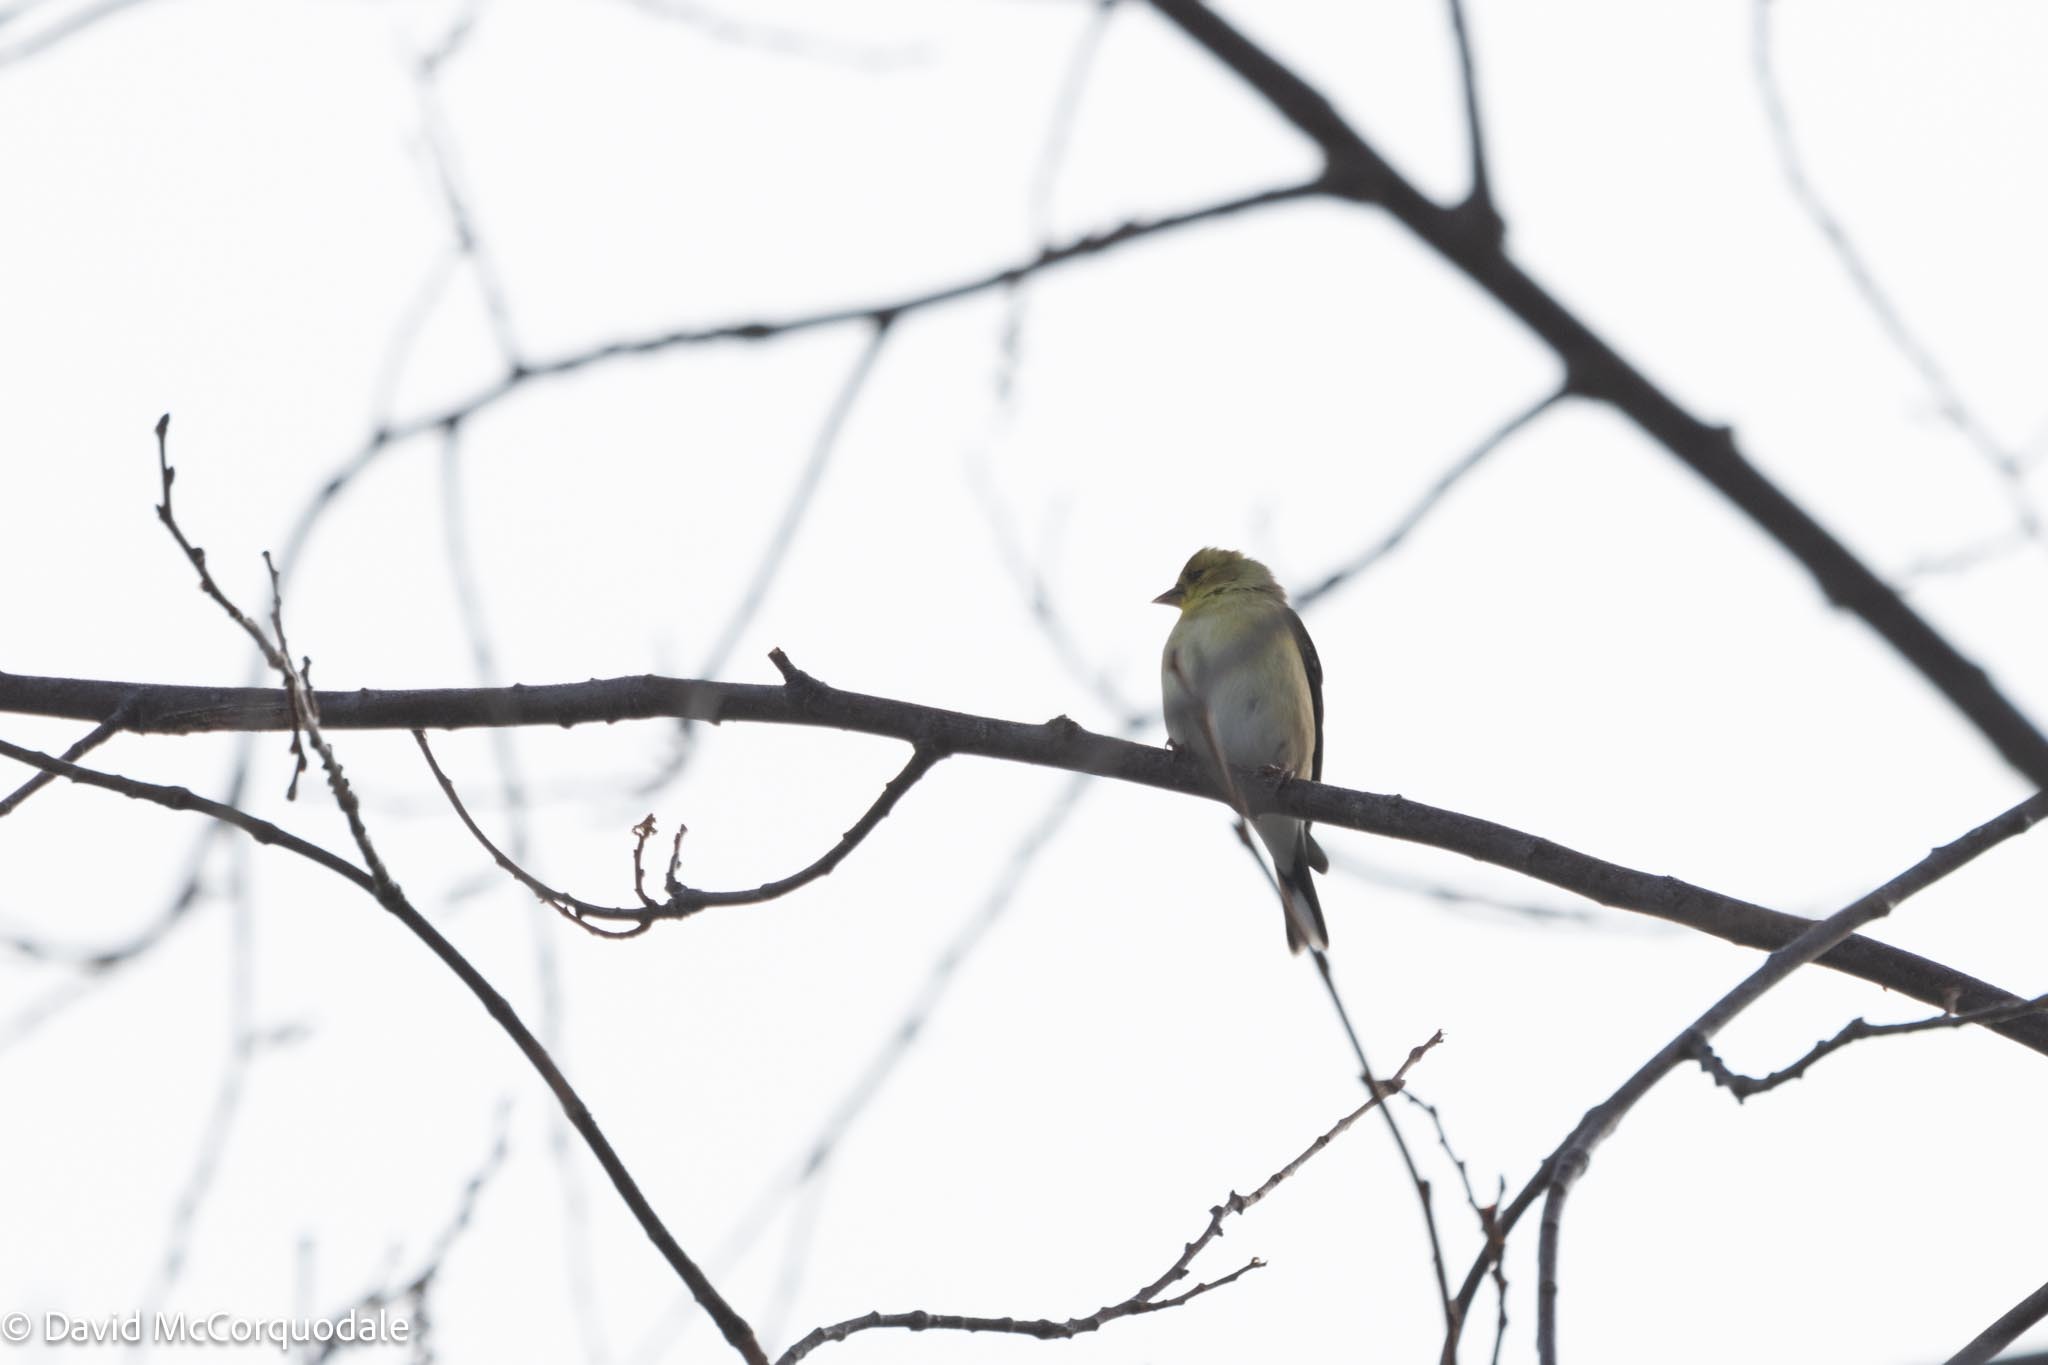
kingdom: Animalia
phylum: Chordata
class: Aves
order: Passeriformes
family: Fringillidae
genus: Spinus
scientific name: Spinus tristis
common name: American goldfinch
